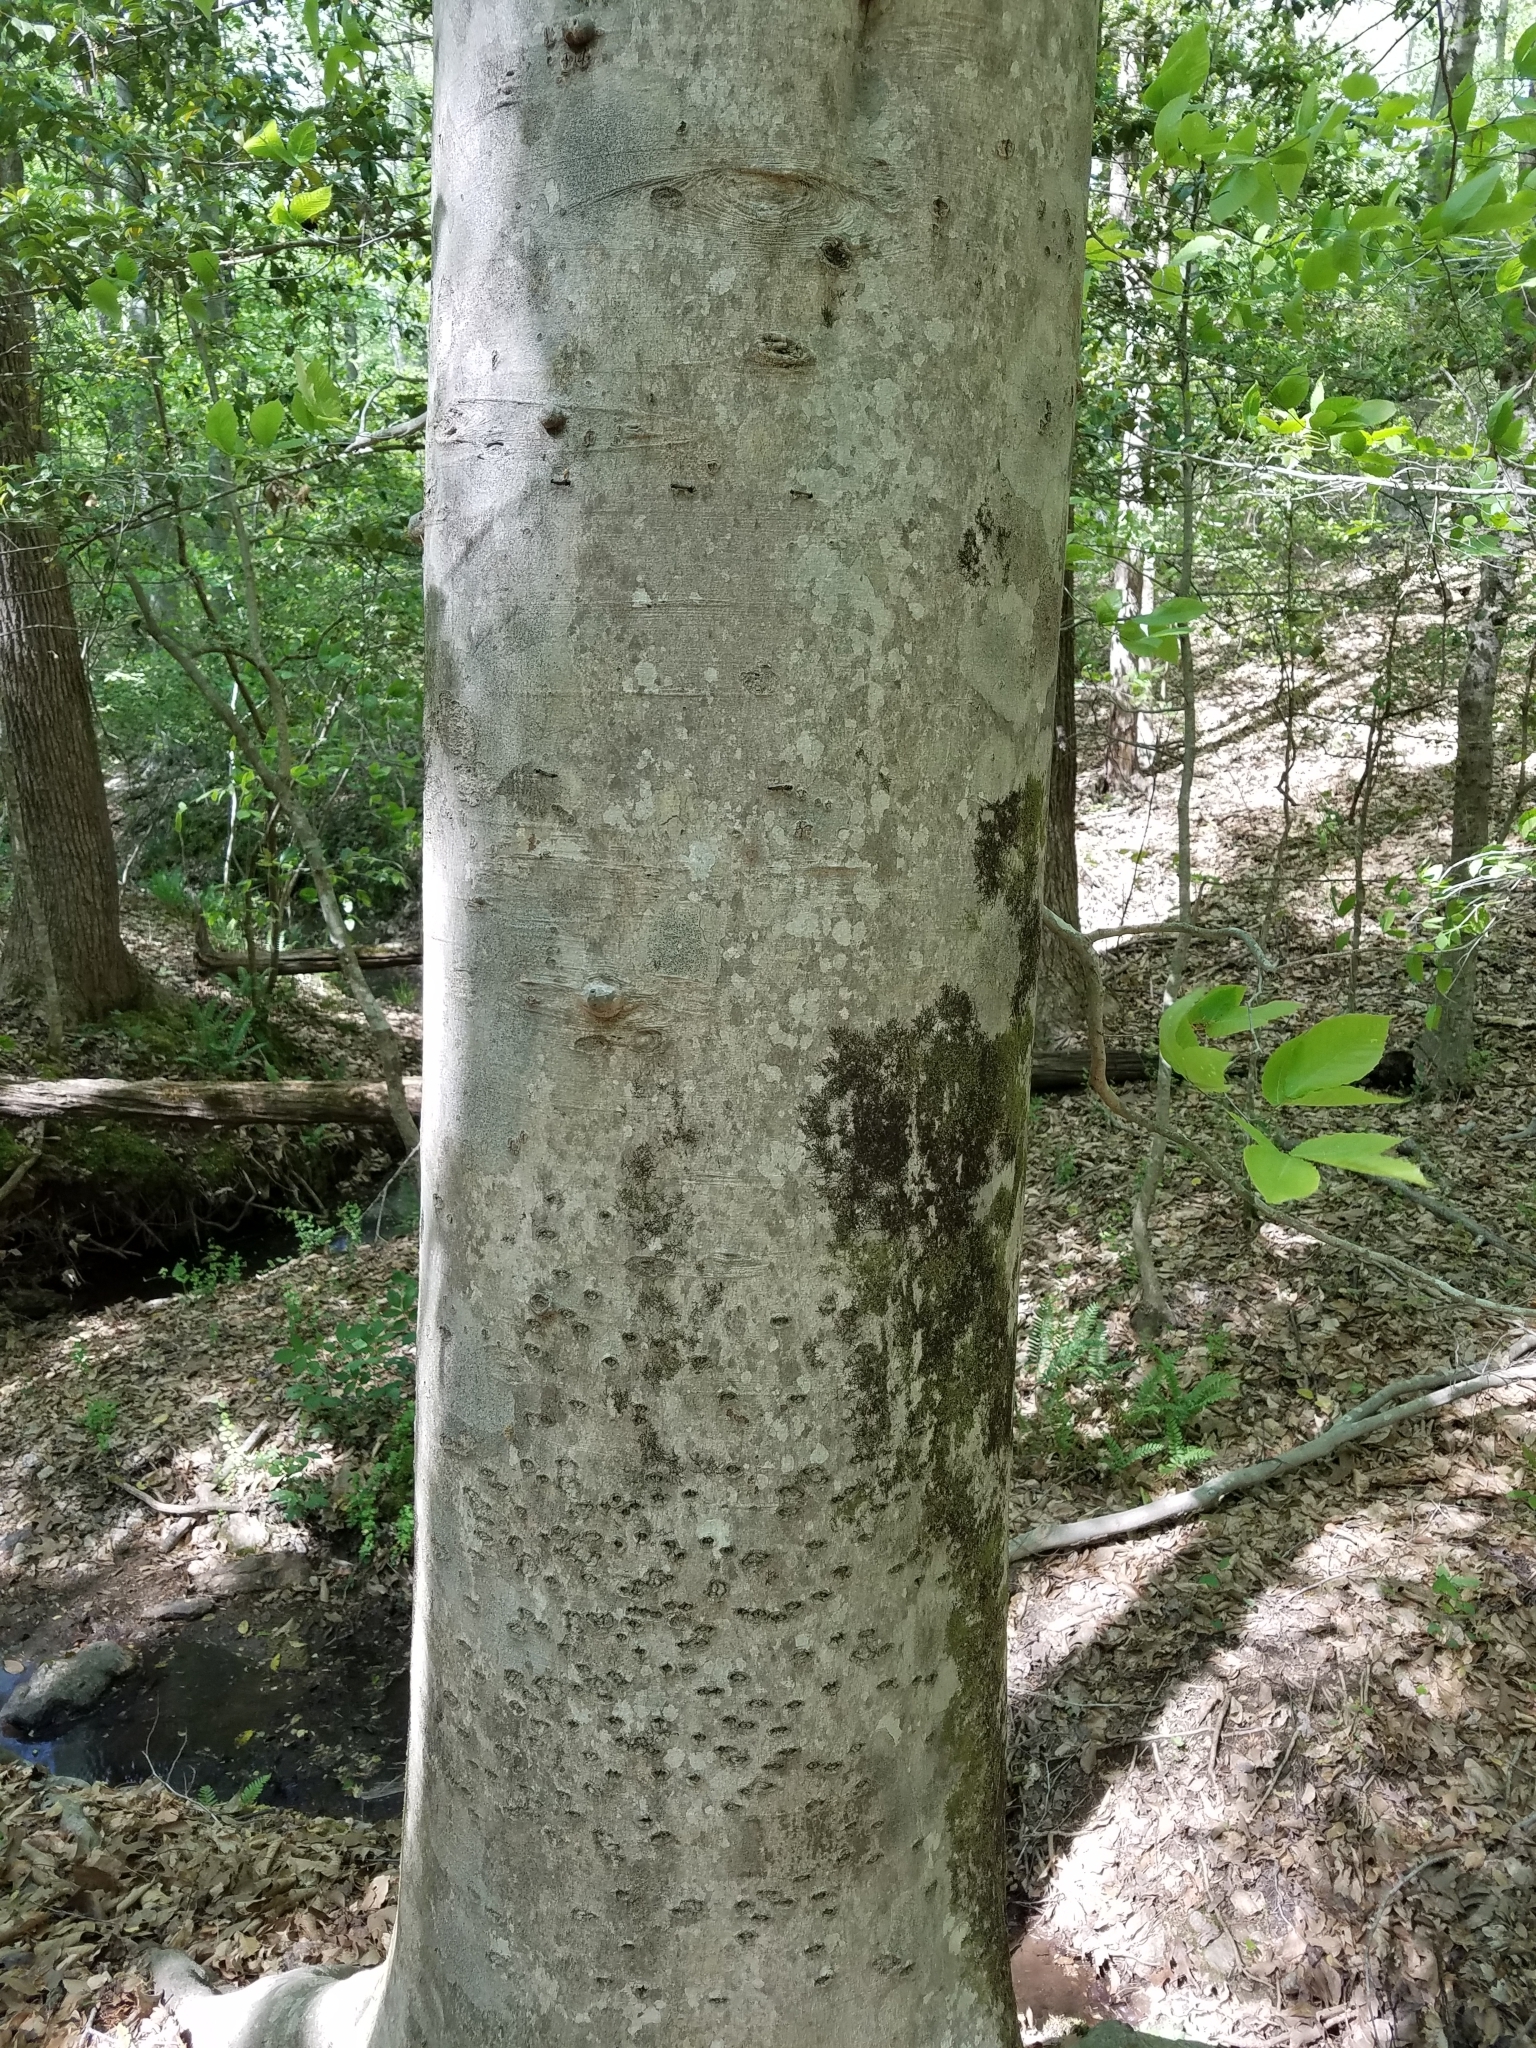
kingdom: Plantae
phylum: Tracheophyta
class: Magnoliopsida
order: Fagales
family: Fagaceae
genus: Fagus
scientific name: Fagus grandifolia
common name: American beech
